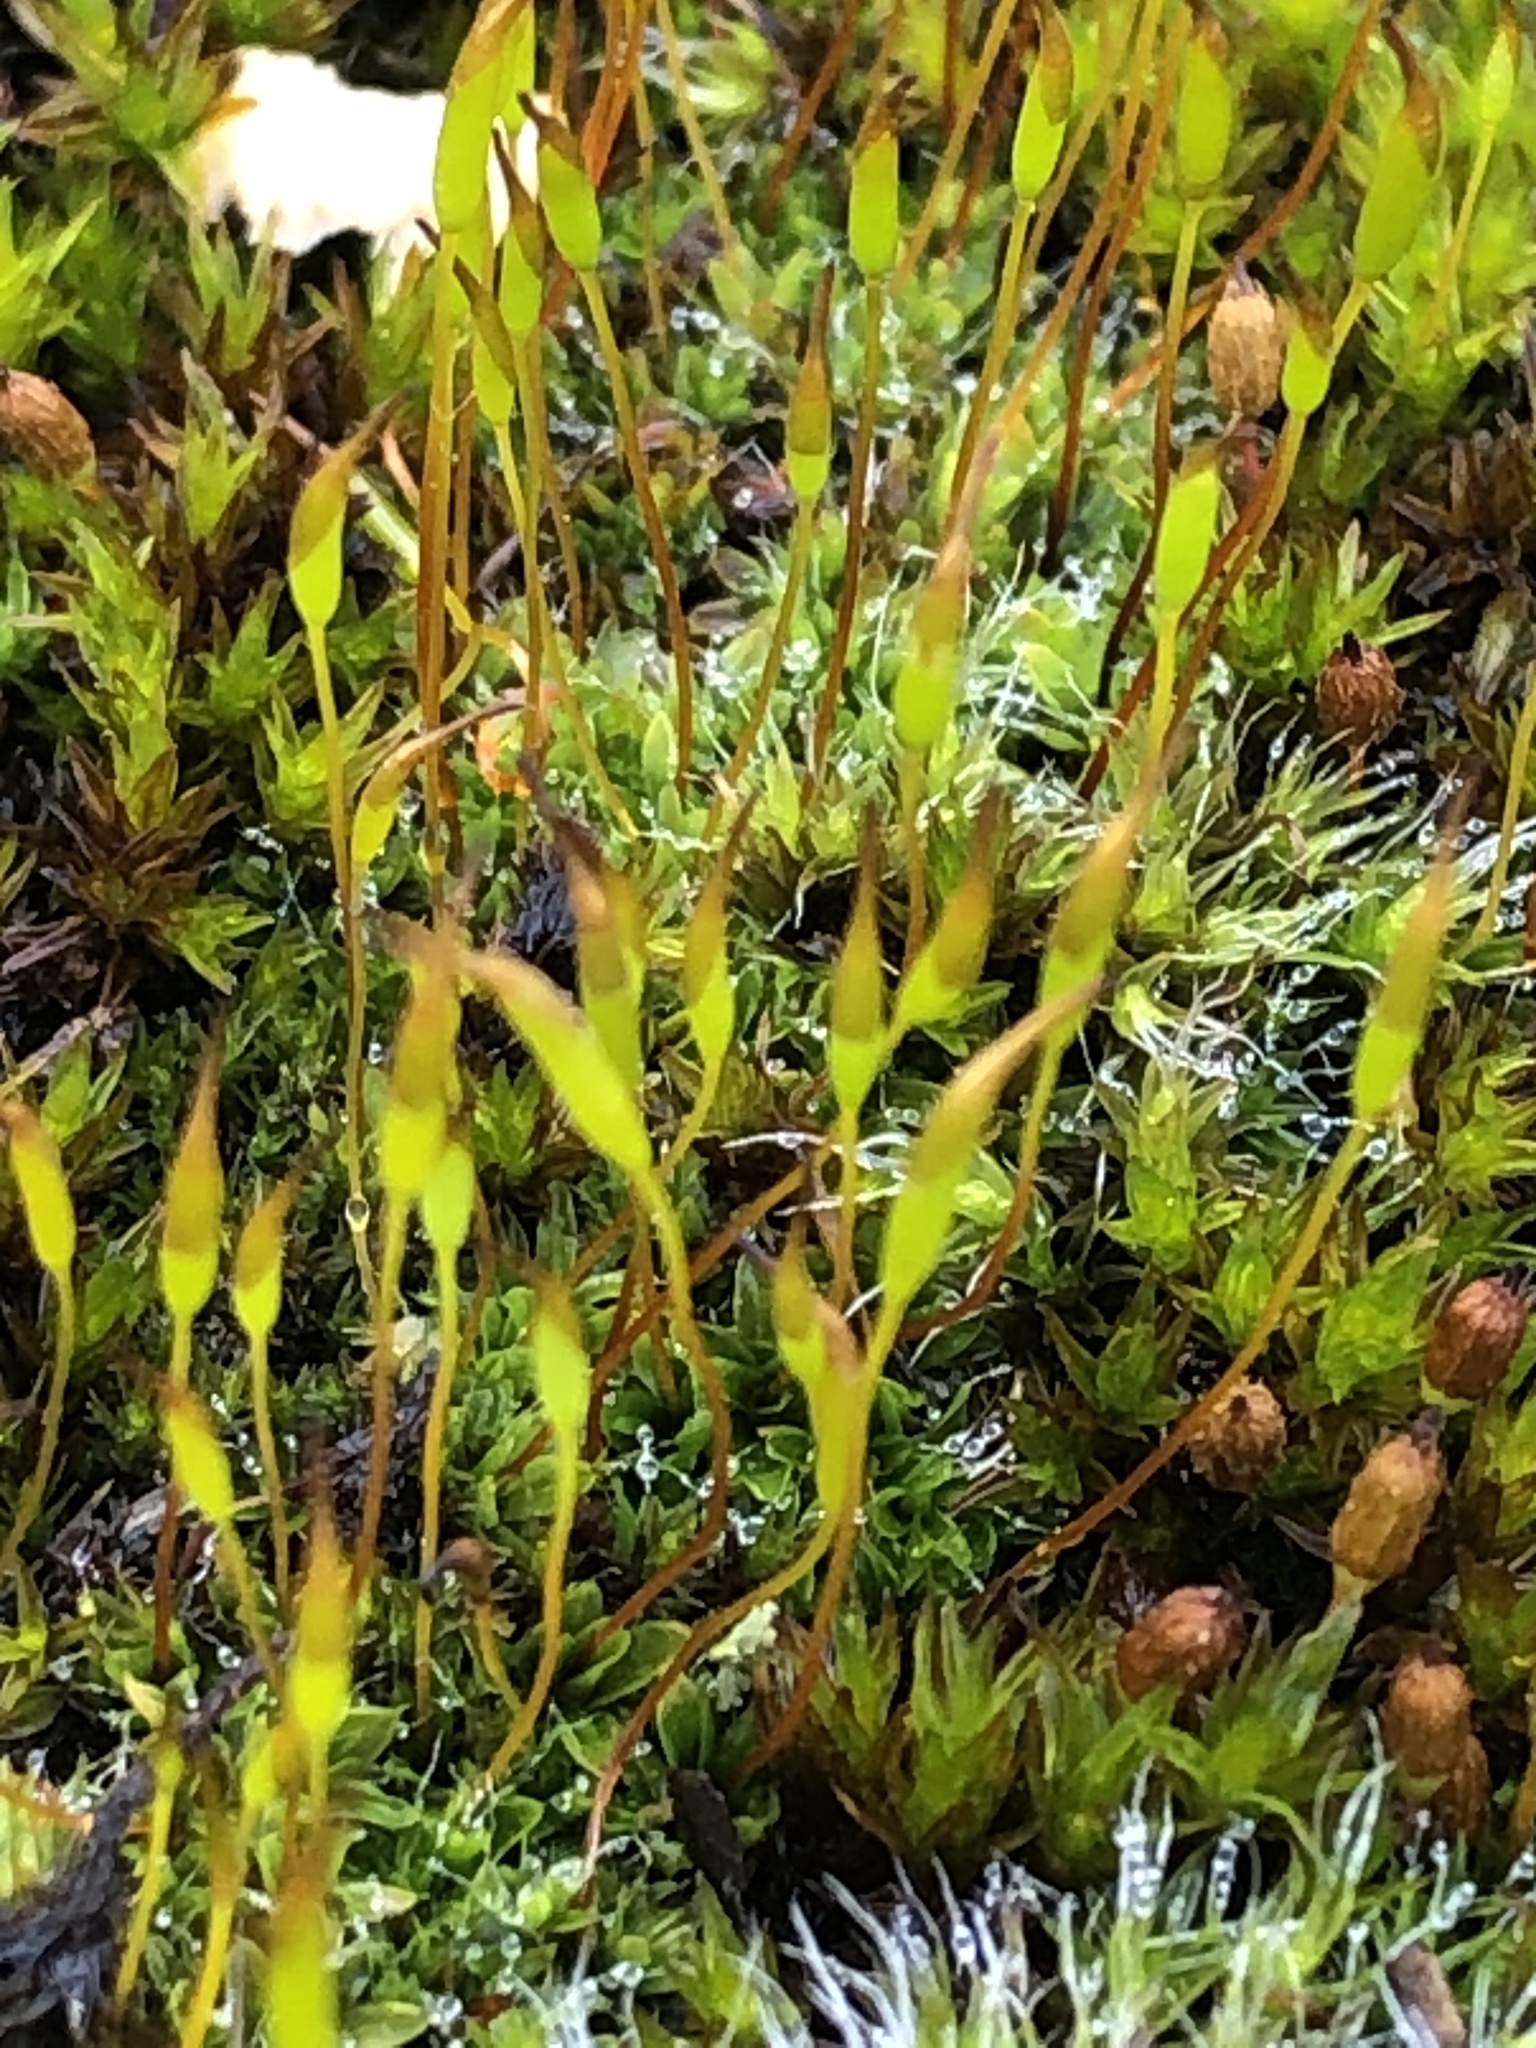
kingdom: Plantae
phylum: Bryophyta
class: Bryopsida
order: Pottiales
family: Pottiaceae
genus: Tortula
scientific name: Tortula muralis
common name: Wall screw-moss
